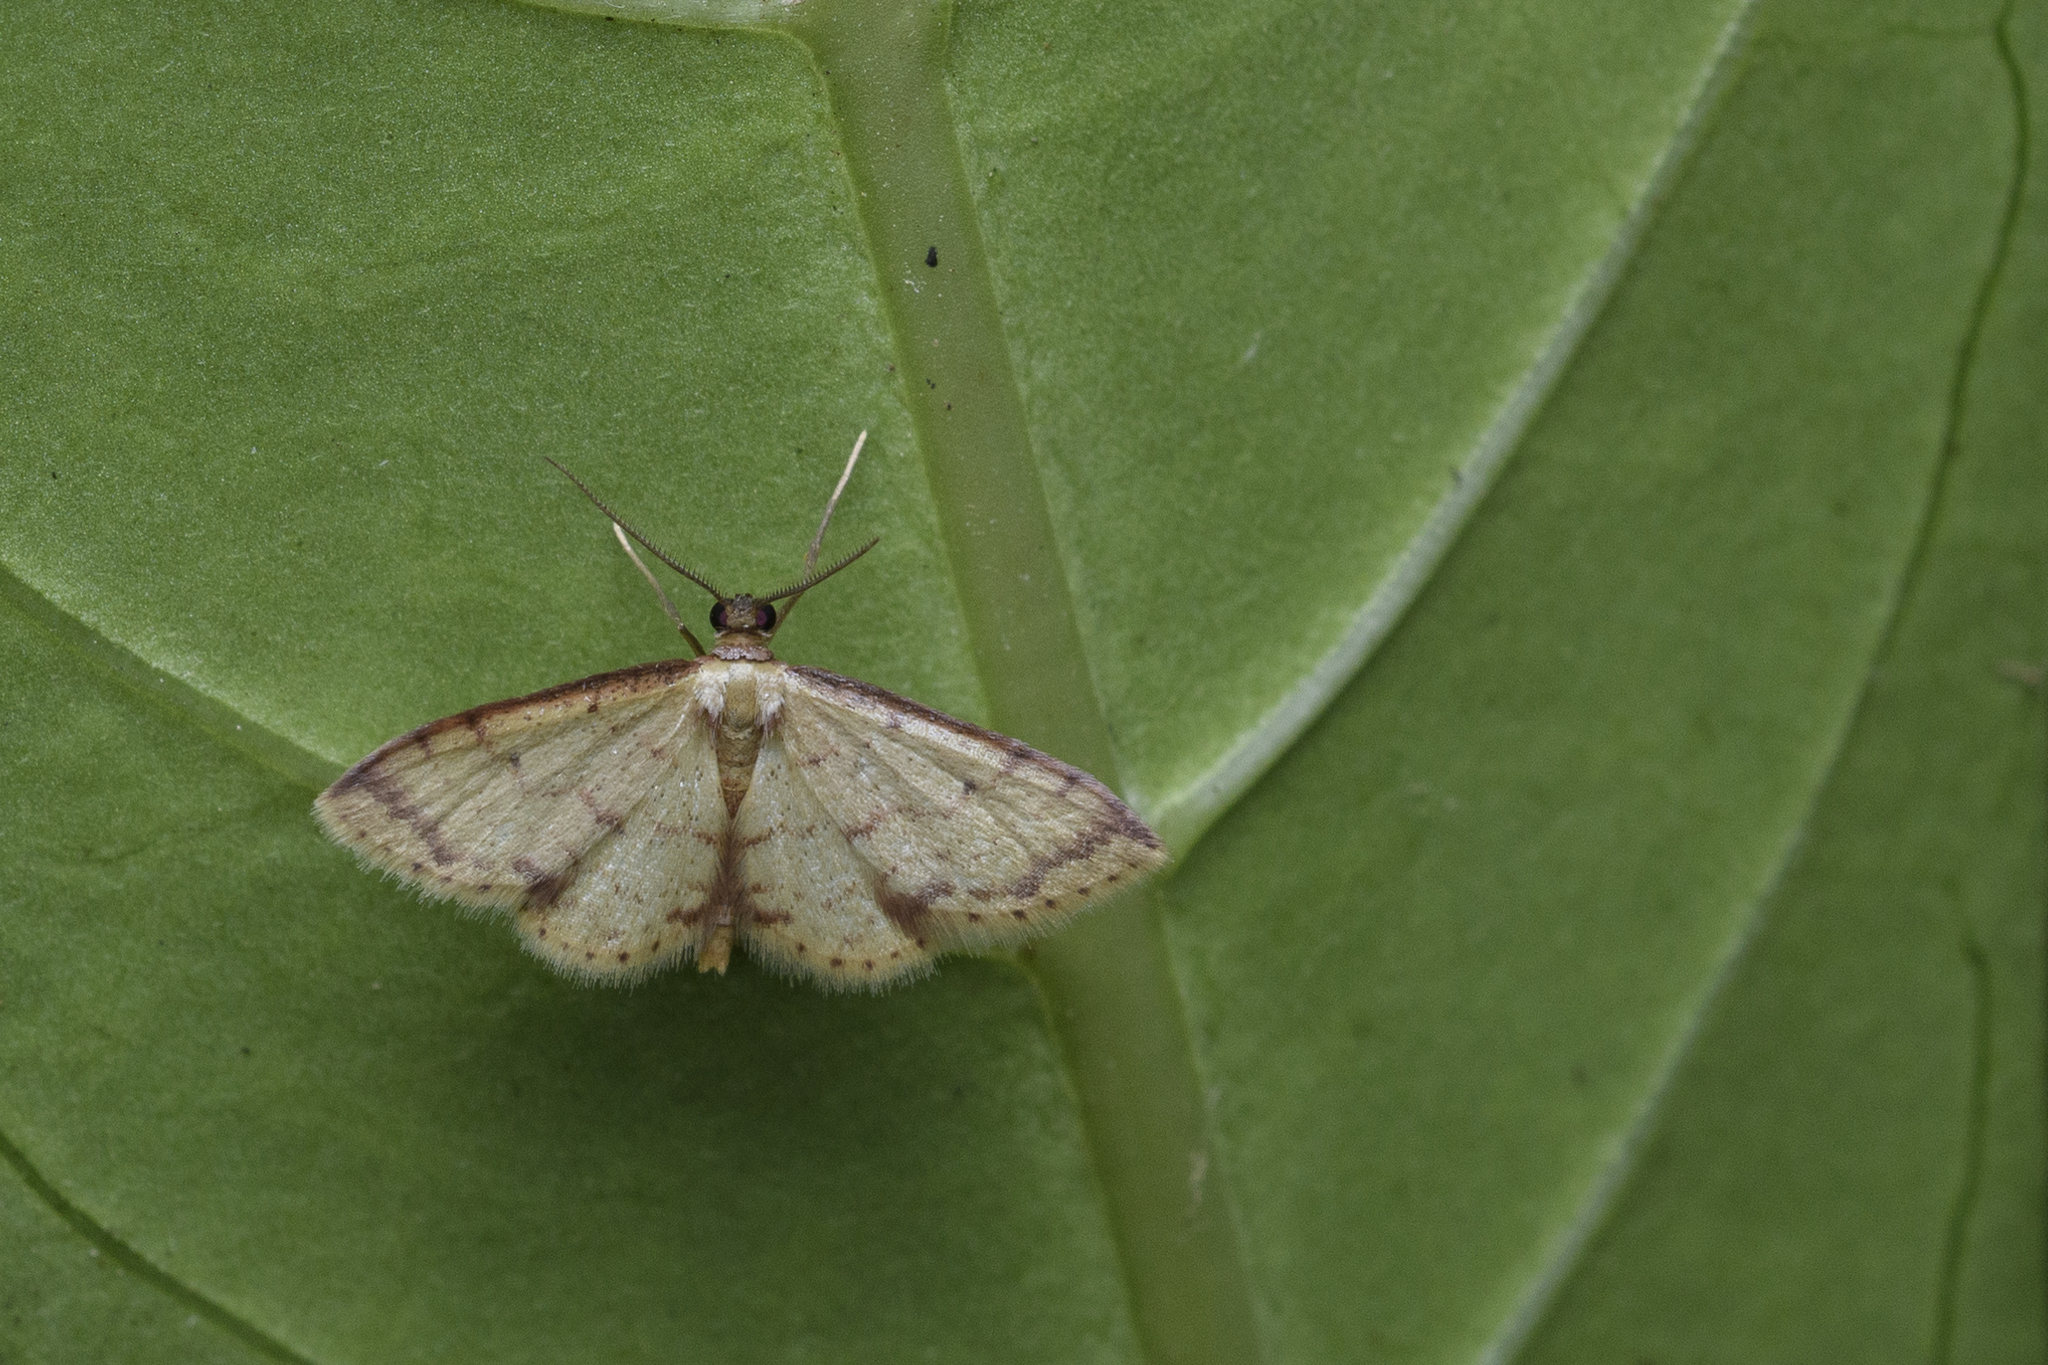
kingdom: Animalia
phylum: Arthropoda
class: Insecta
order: Lepidoptera
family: Geometridae
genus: Idaea
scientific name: Idaea impexa
